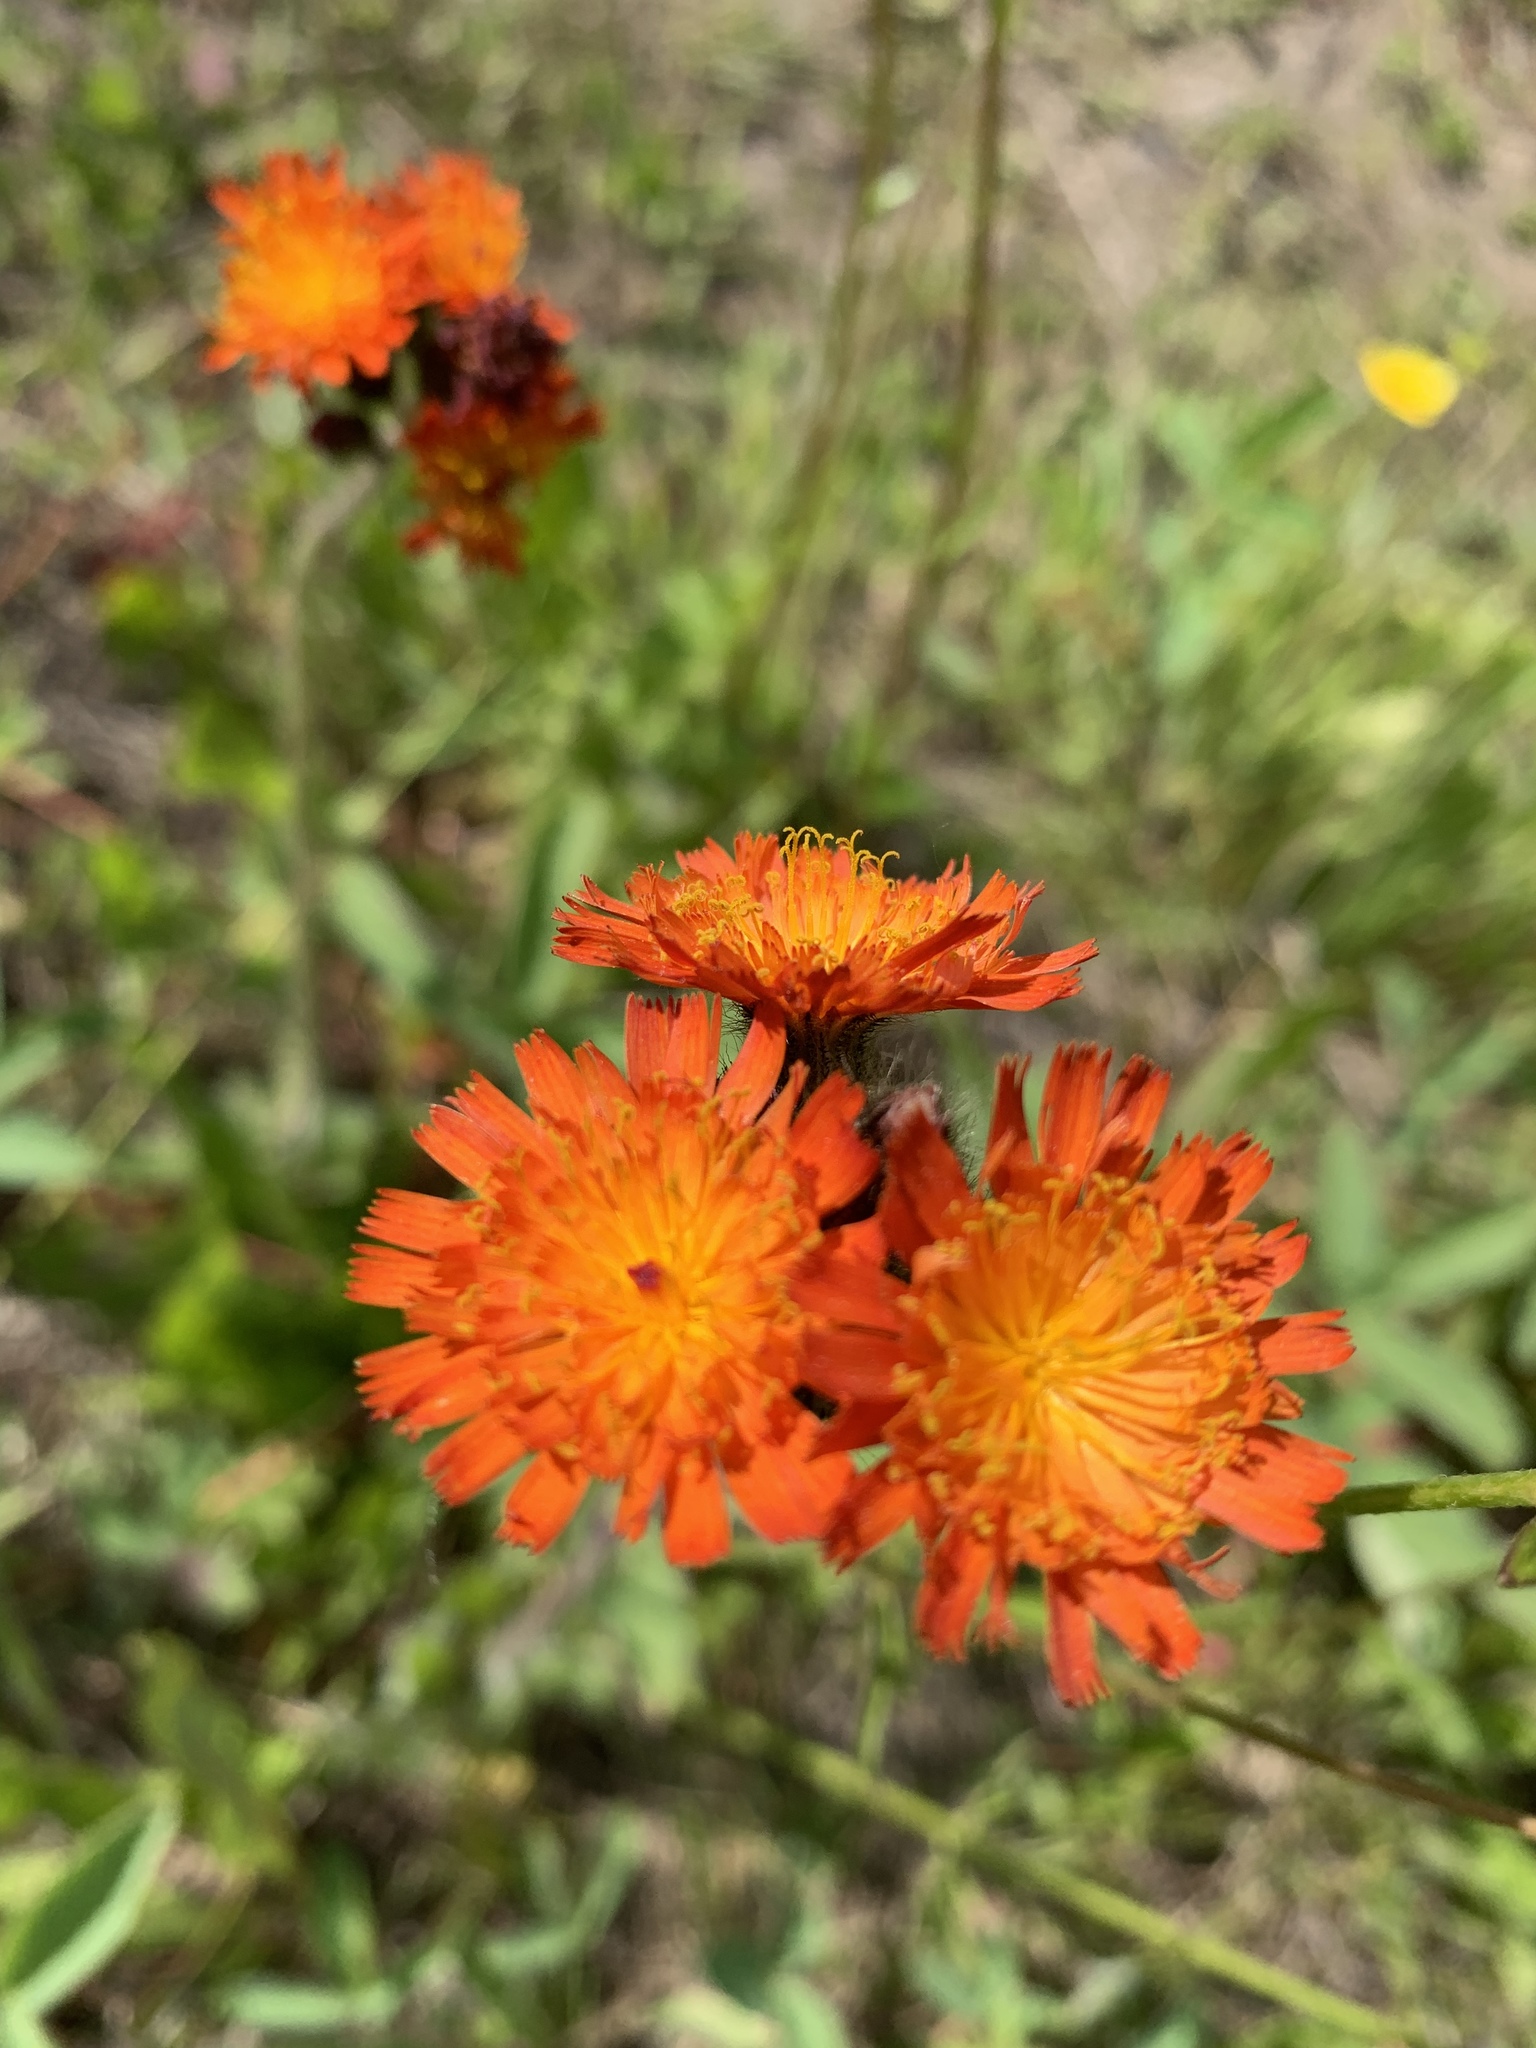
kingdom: Plantae
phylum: Tracheophyta
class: Magnoliopsida
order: Asterales
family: Asteraceae
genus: Pilosella
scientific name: Pilosella aurantiaca
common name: Fox-and-cubs
